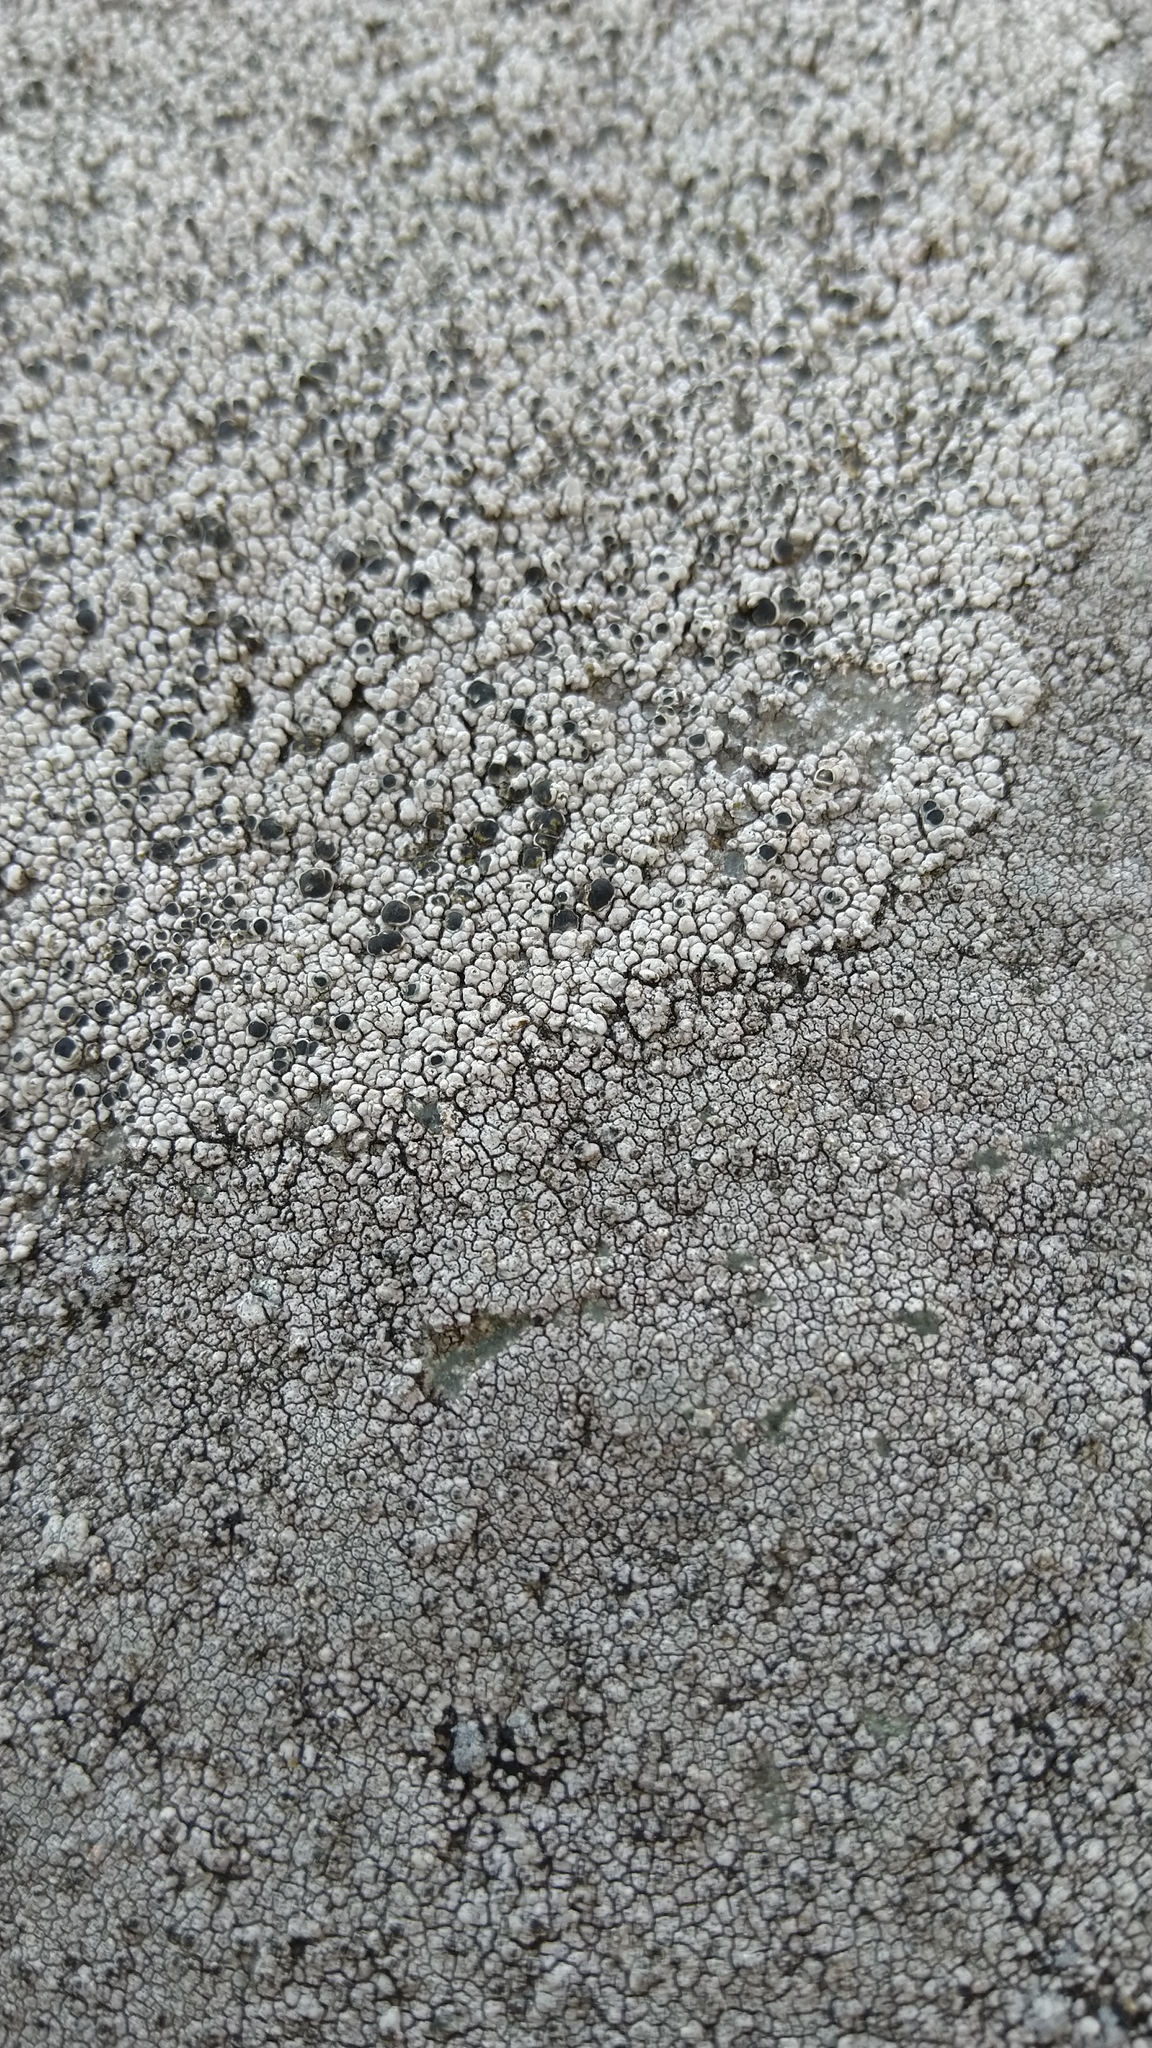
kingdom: Fungi
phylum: Ascomycota
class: Lecanoromycetes
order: Lecanorales
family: Tephromelataceae
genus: Tephromela
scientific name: Tephromela atra
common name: Black shields
